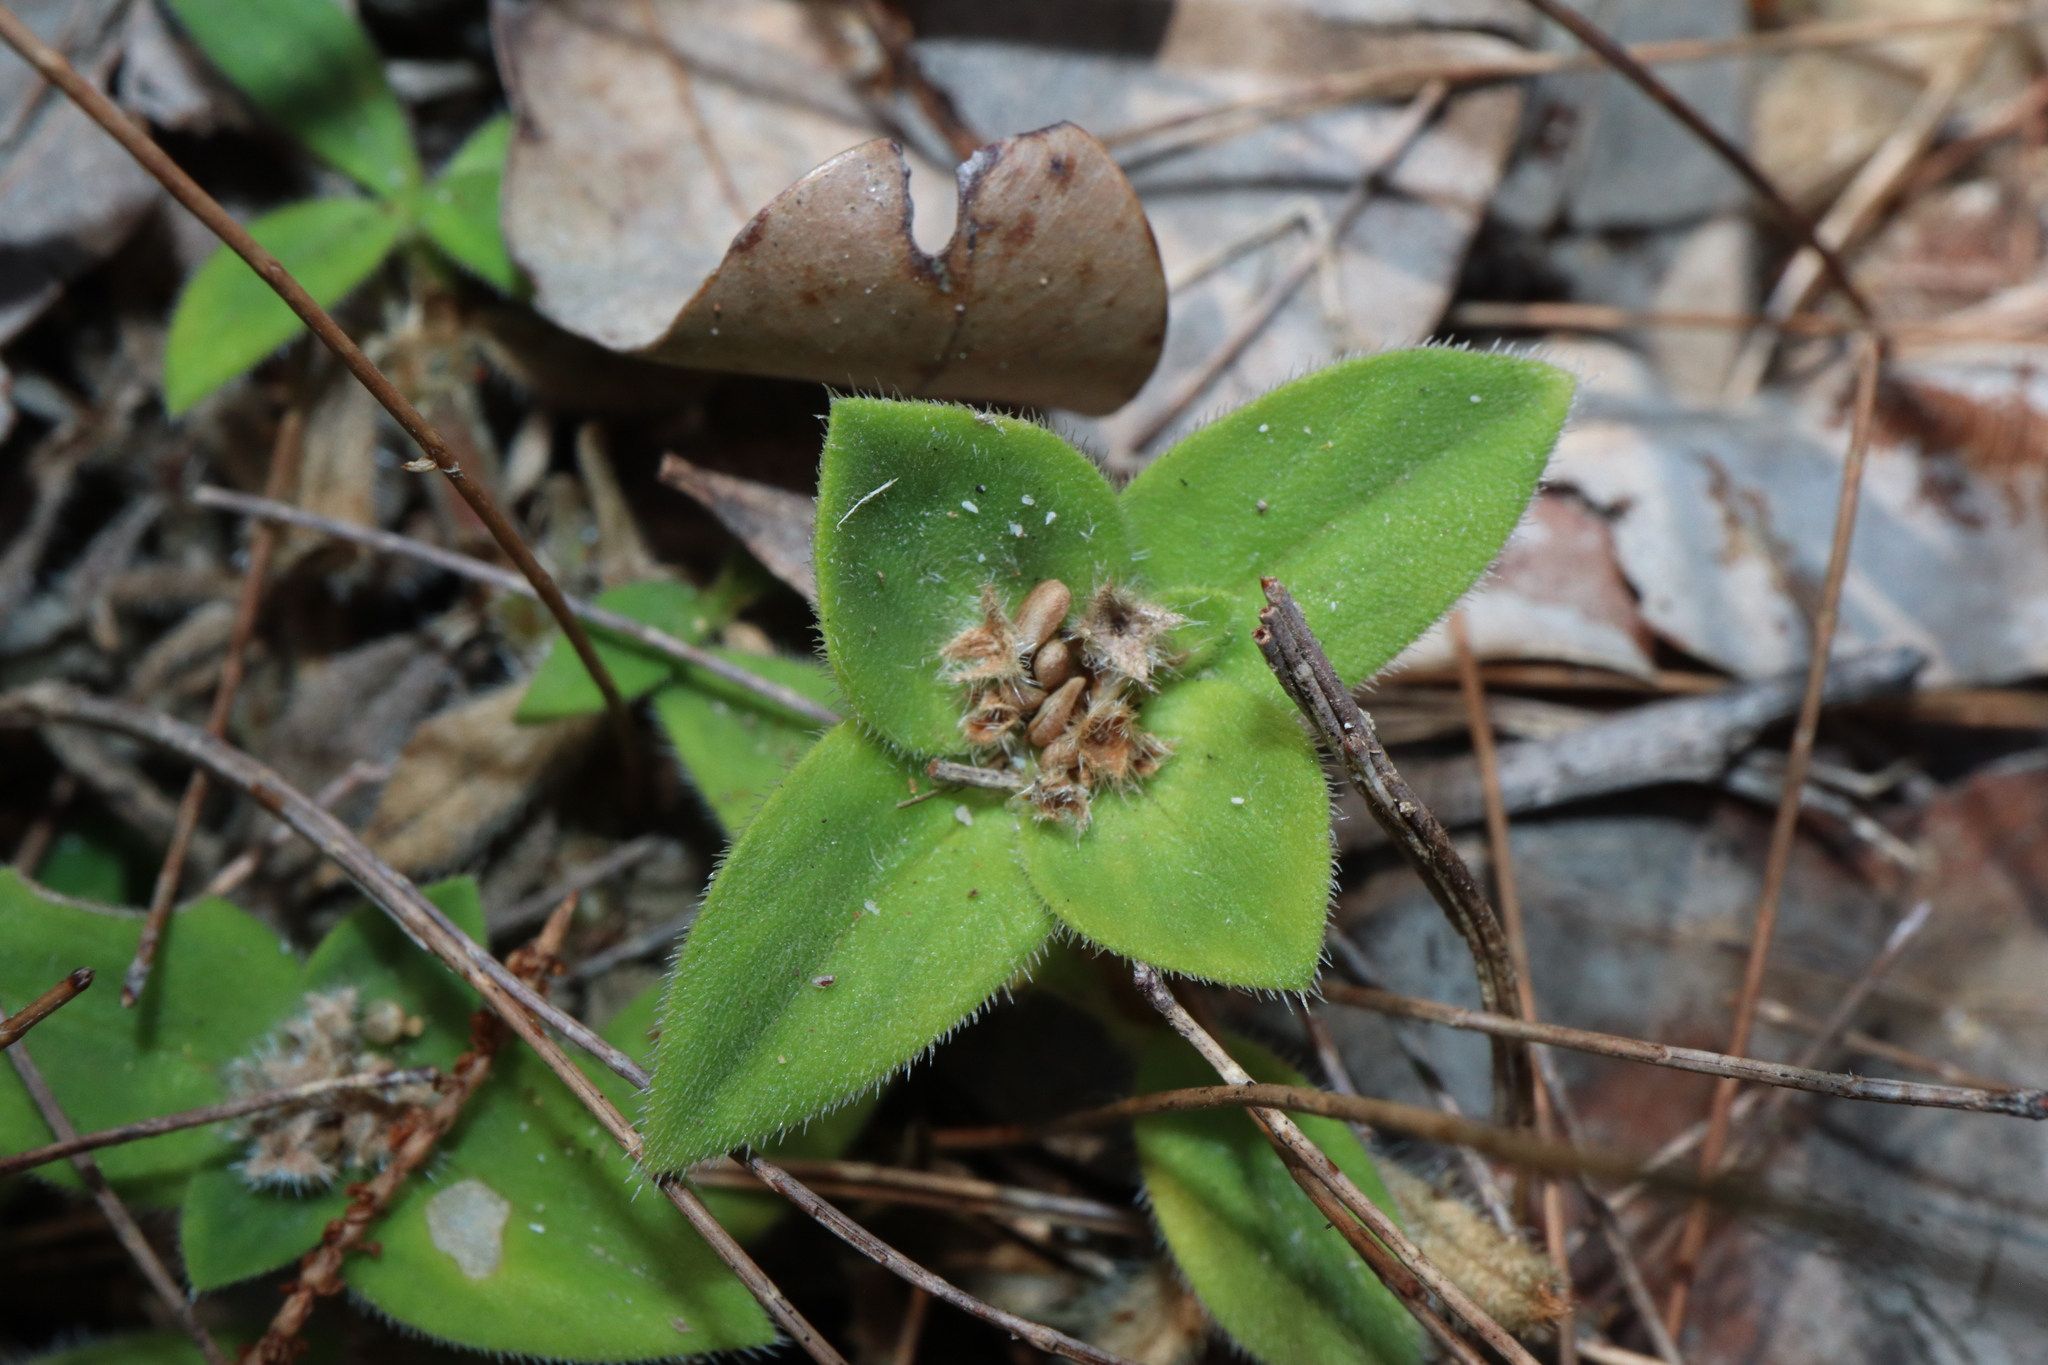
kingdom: Plantae
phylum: Tracheophyta
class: Magnoliopsida
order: Gentianales
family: Rubiaceae
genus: Richardia
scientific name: Richardia humistrata
